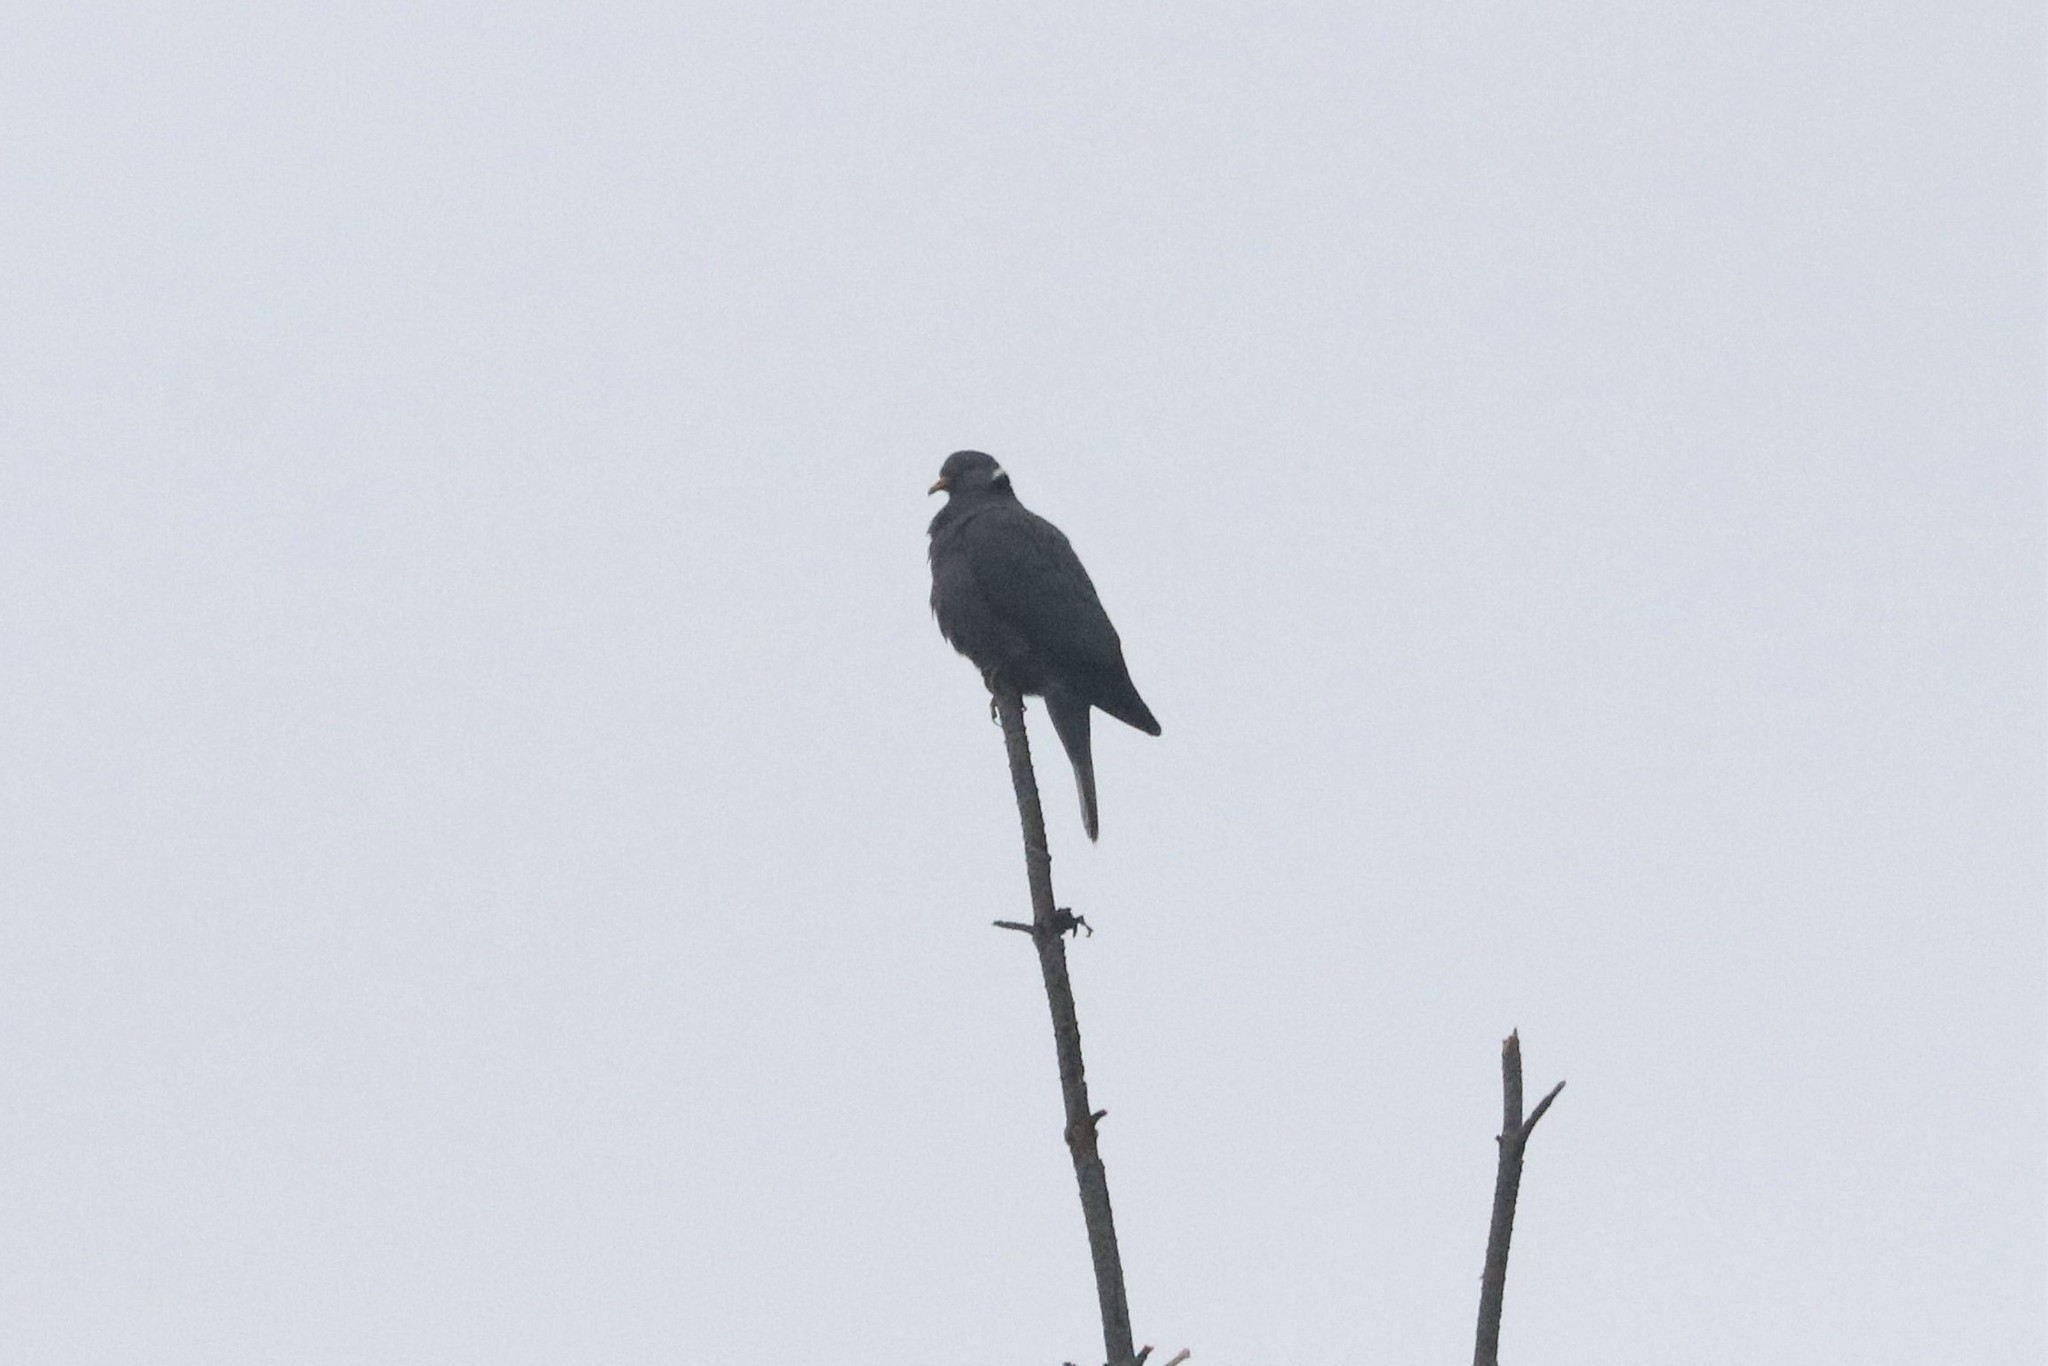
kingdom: Animalia
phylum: Chordata
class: Aves
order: Columbiformes
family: Columbidae
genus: Patagioenas
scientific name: Patagioenas fasciata
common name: Band-tailed pigeon
